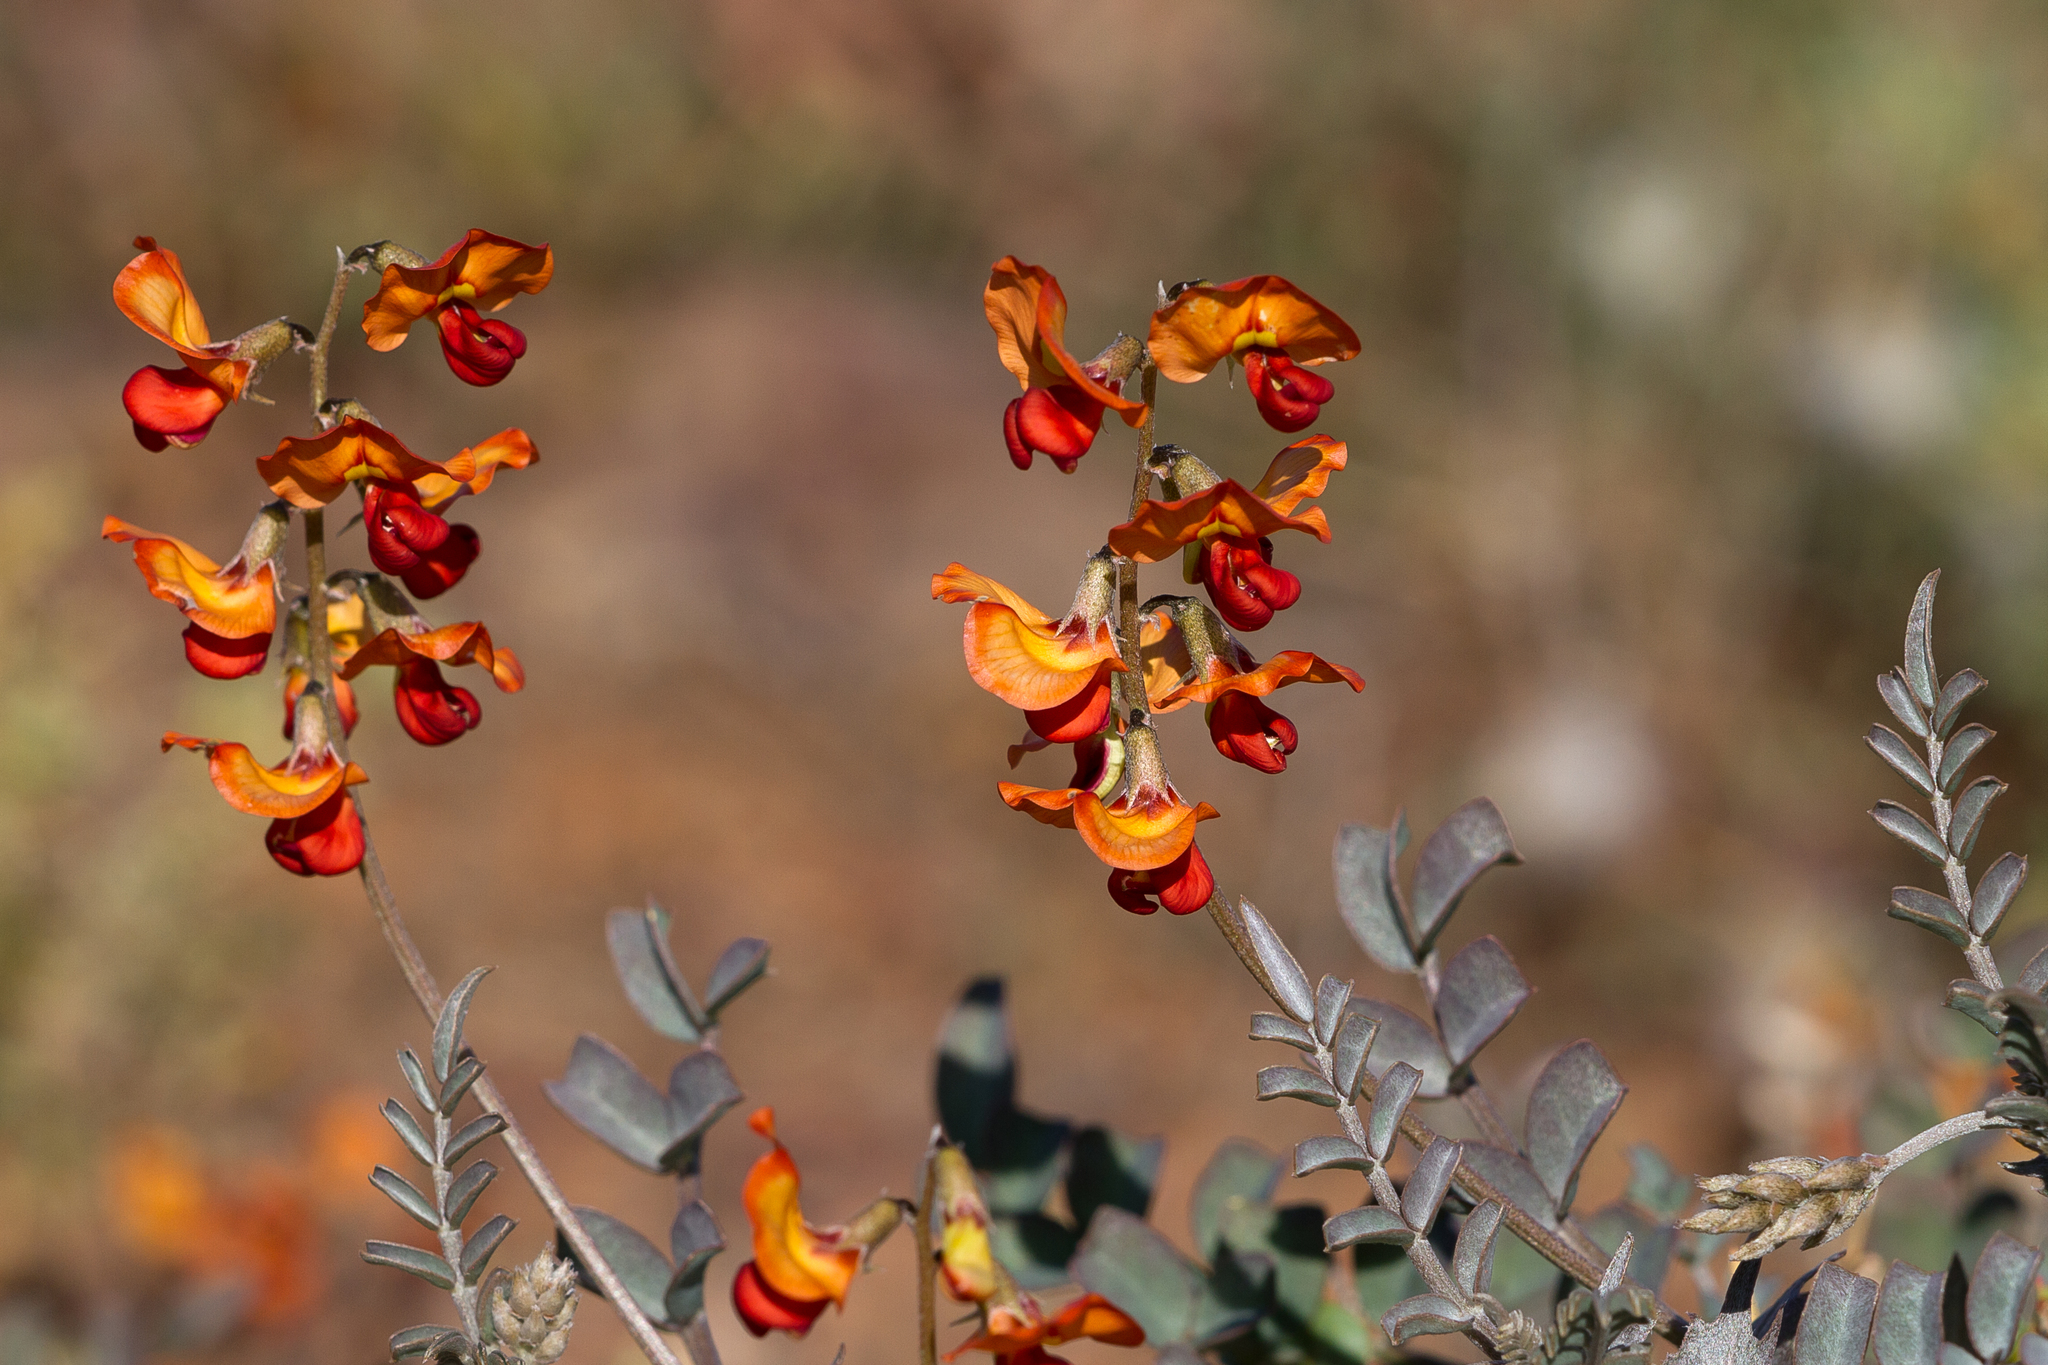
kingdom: Plantae
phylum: Tracheophyta
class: Magnoliopsida
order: Fabales
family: Fabaceae
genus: Swainsona
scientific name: Swainsona stipularis
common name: Orange darling-pea
